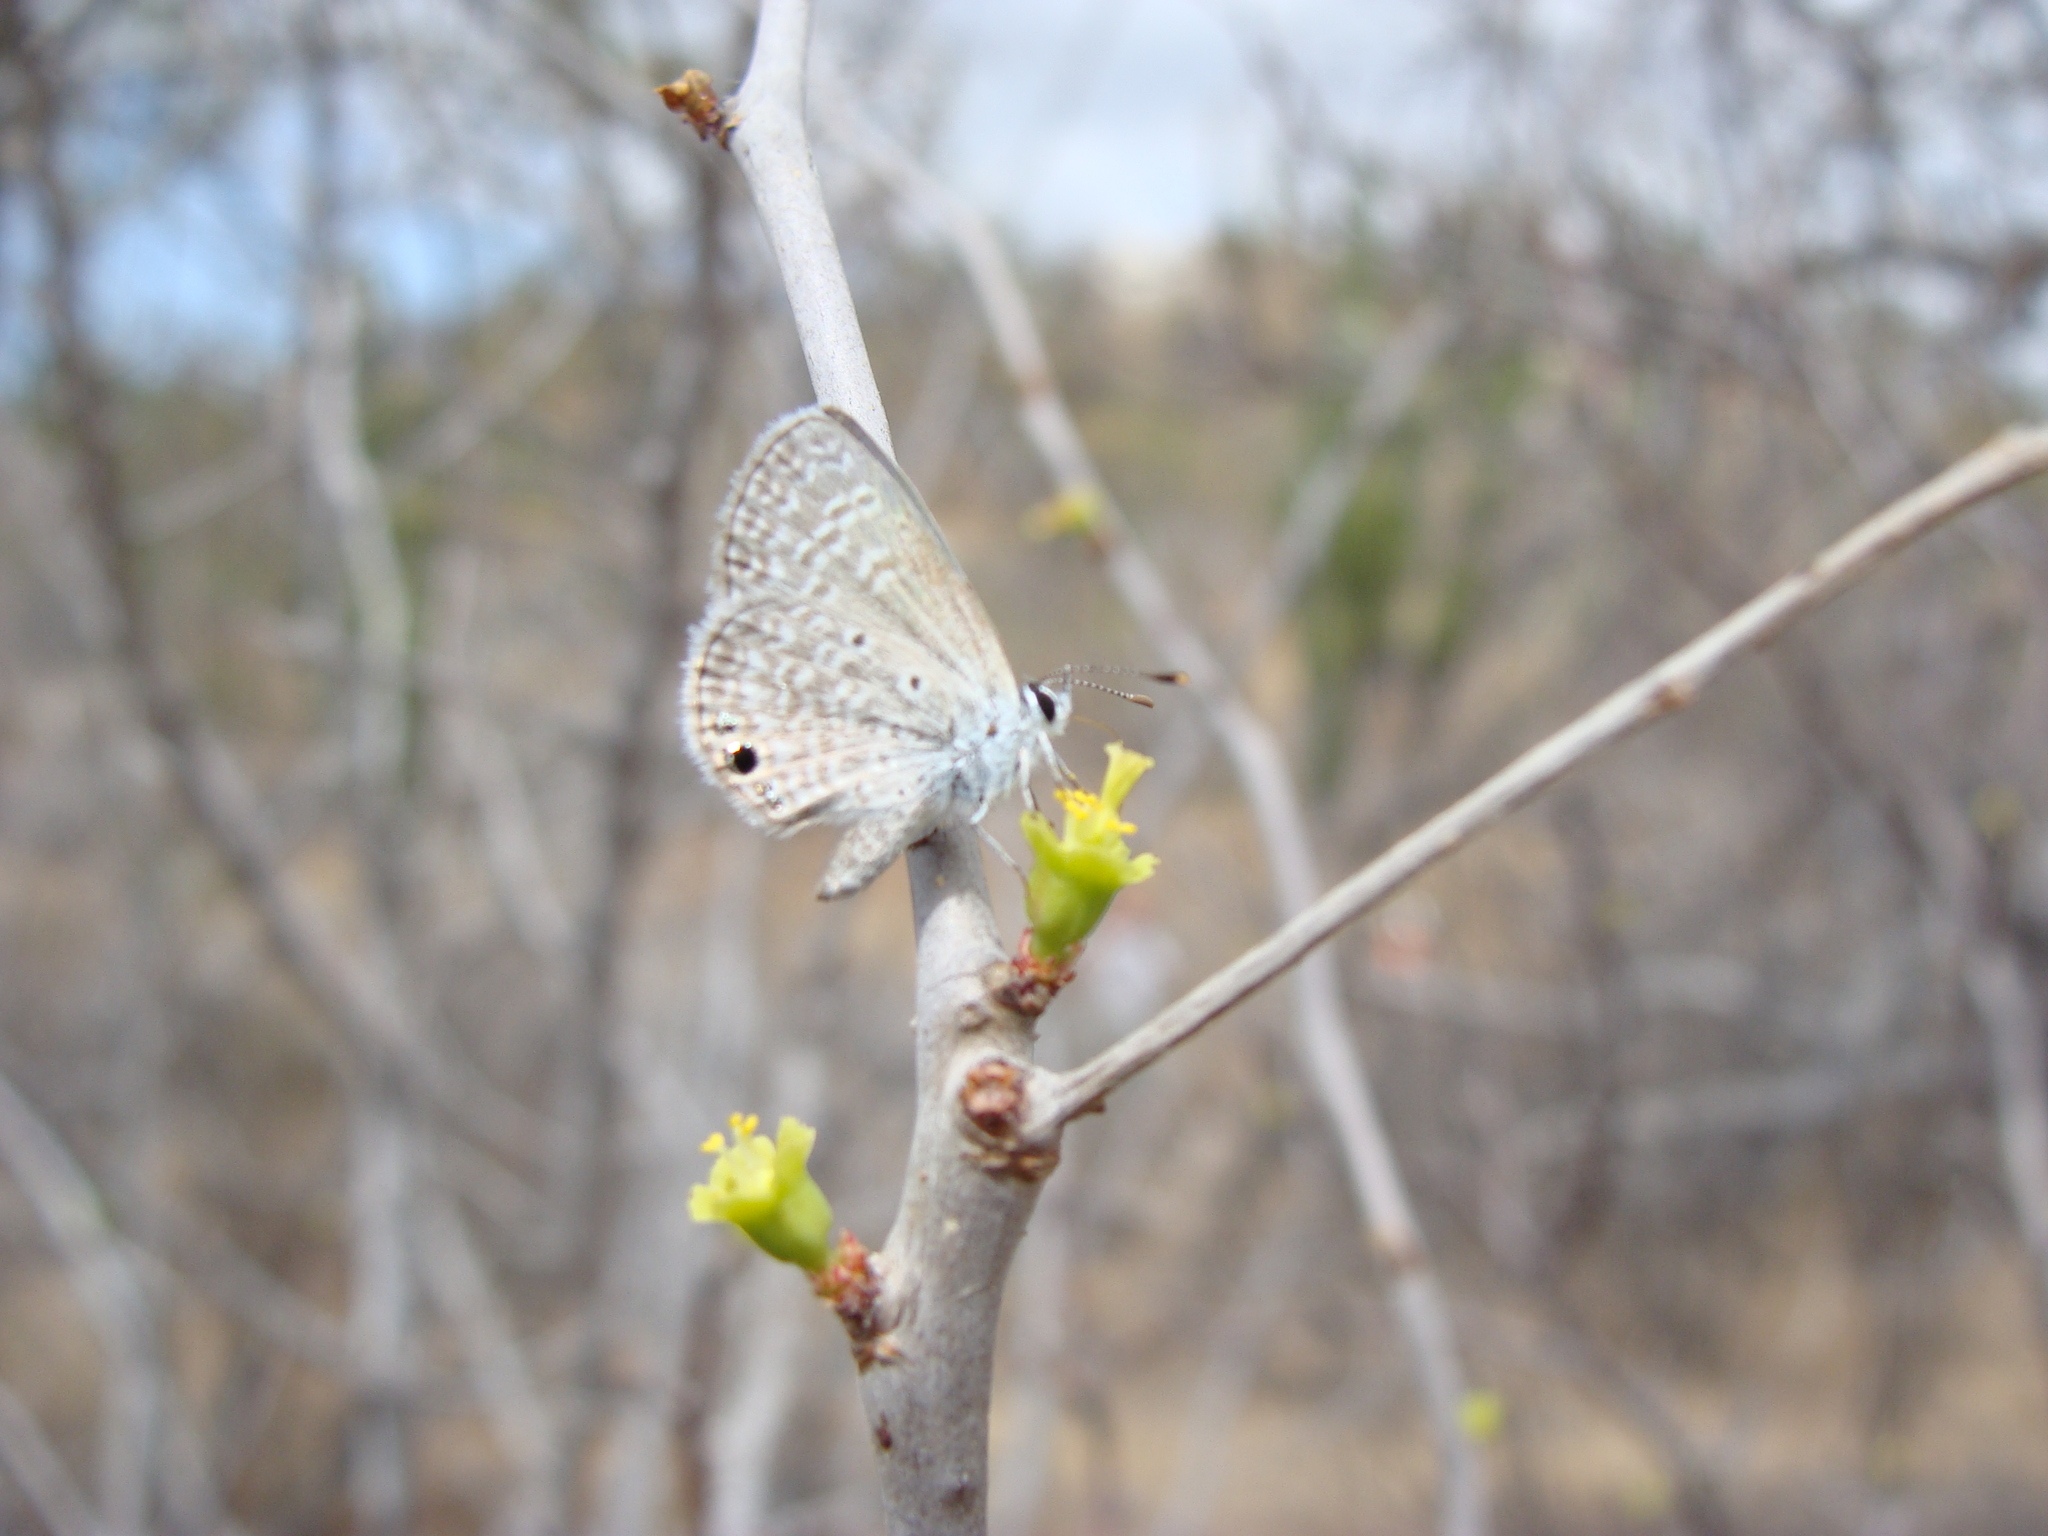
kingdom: Animalia
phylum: Arthropoda
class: Insecta
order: Lepidoptera
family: Lycaenidae
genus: Echinargus
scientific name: Echinargus isola
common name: Reakirt's blue
